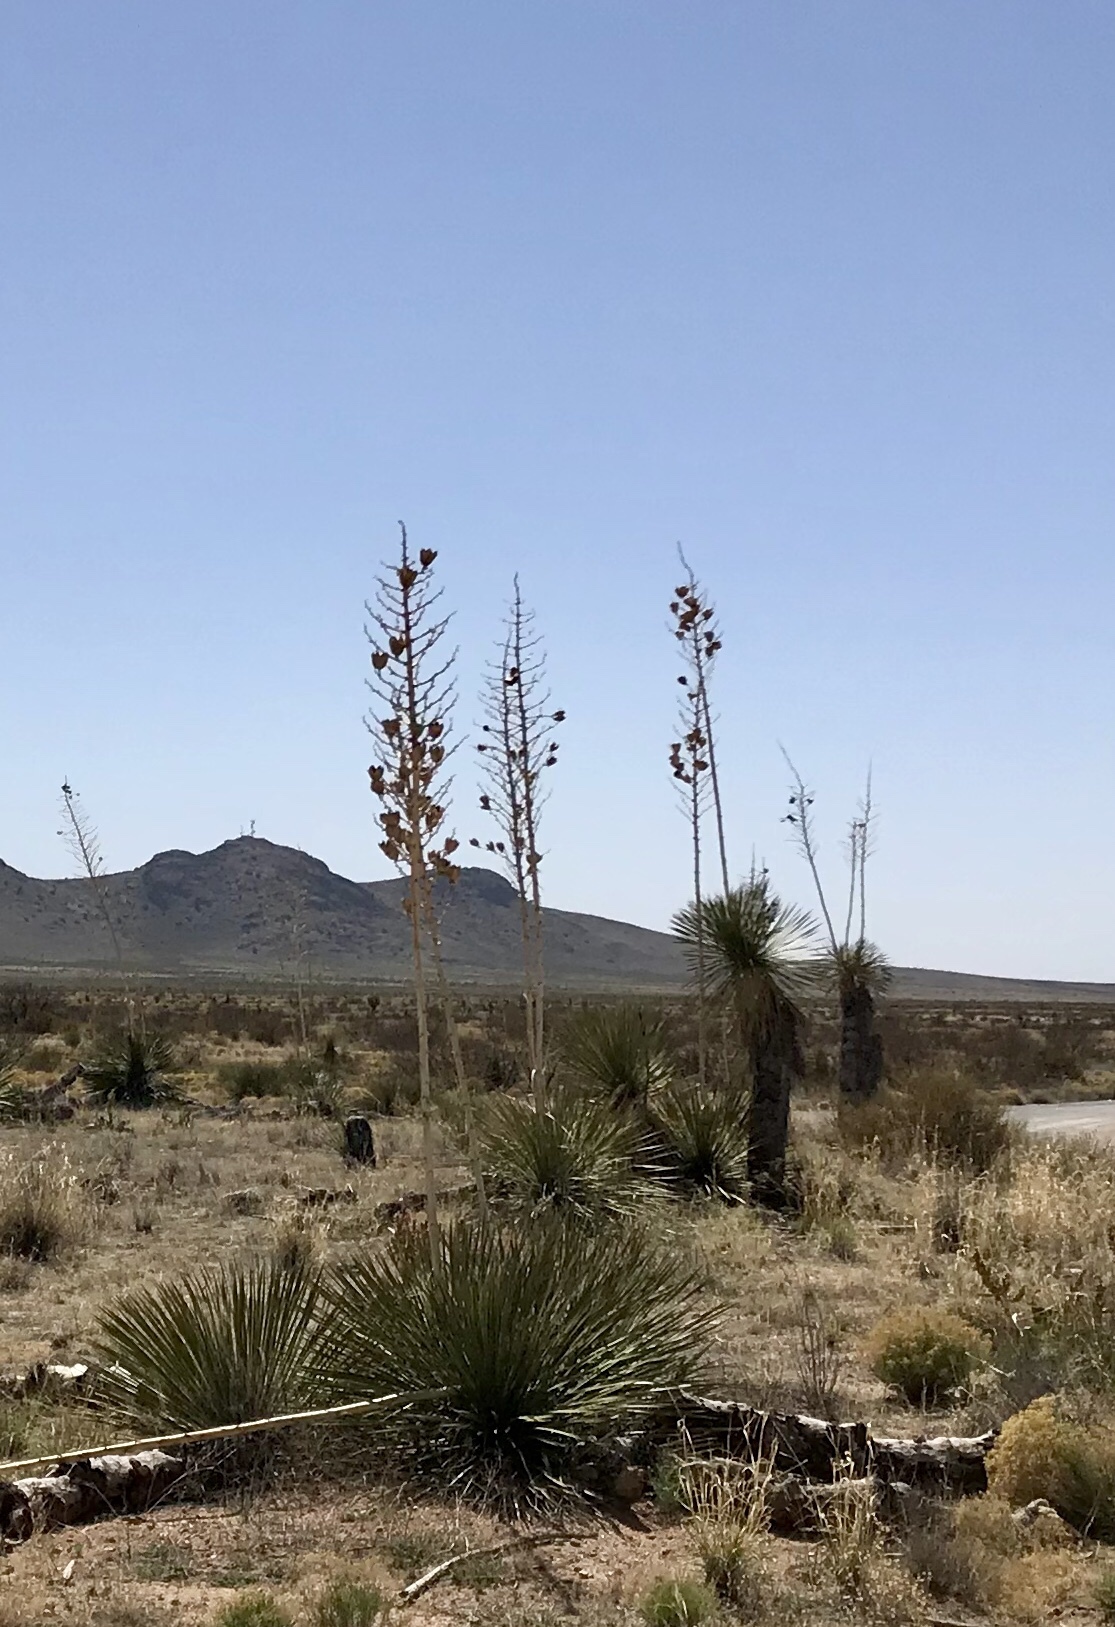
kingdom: Plantae
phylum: Tracheophyta
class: Liliopsida
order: Asparagales
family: Asparagaceae
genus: Yucca
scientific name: Yucca elata
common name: Palmella
